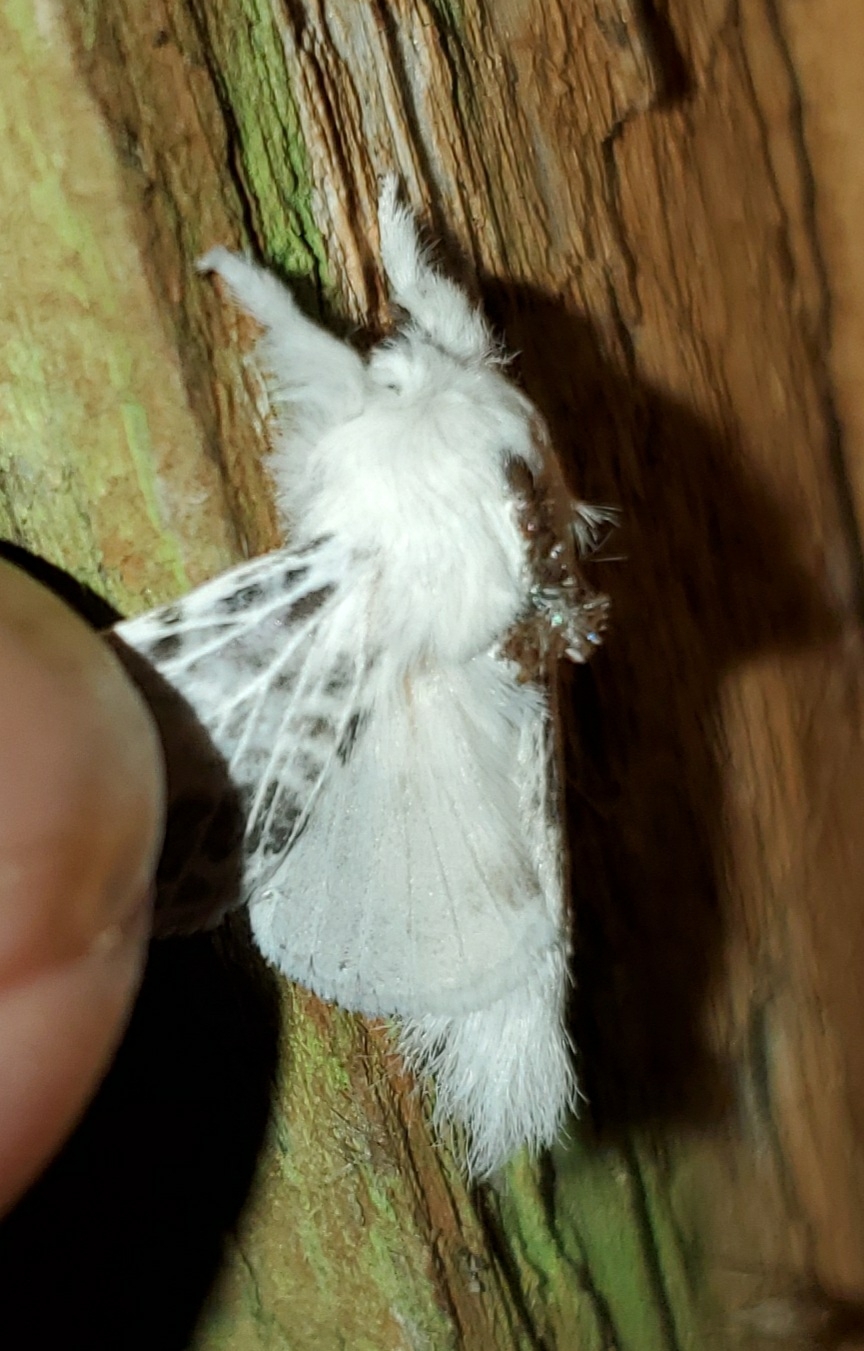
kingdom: Animalia
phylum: Arthropoda
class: Insecta
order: Lepidoptera
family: Lasiocampidae
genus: Tolype
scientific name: Tolype minta
